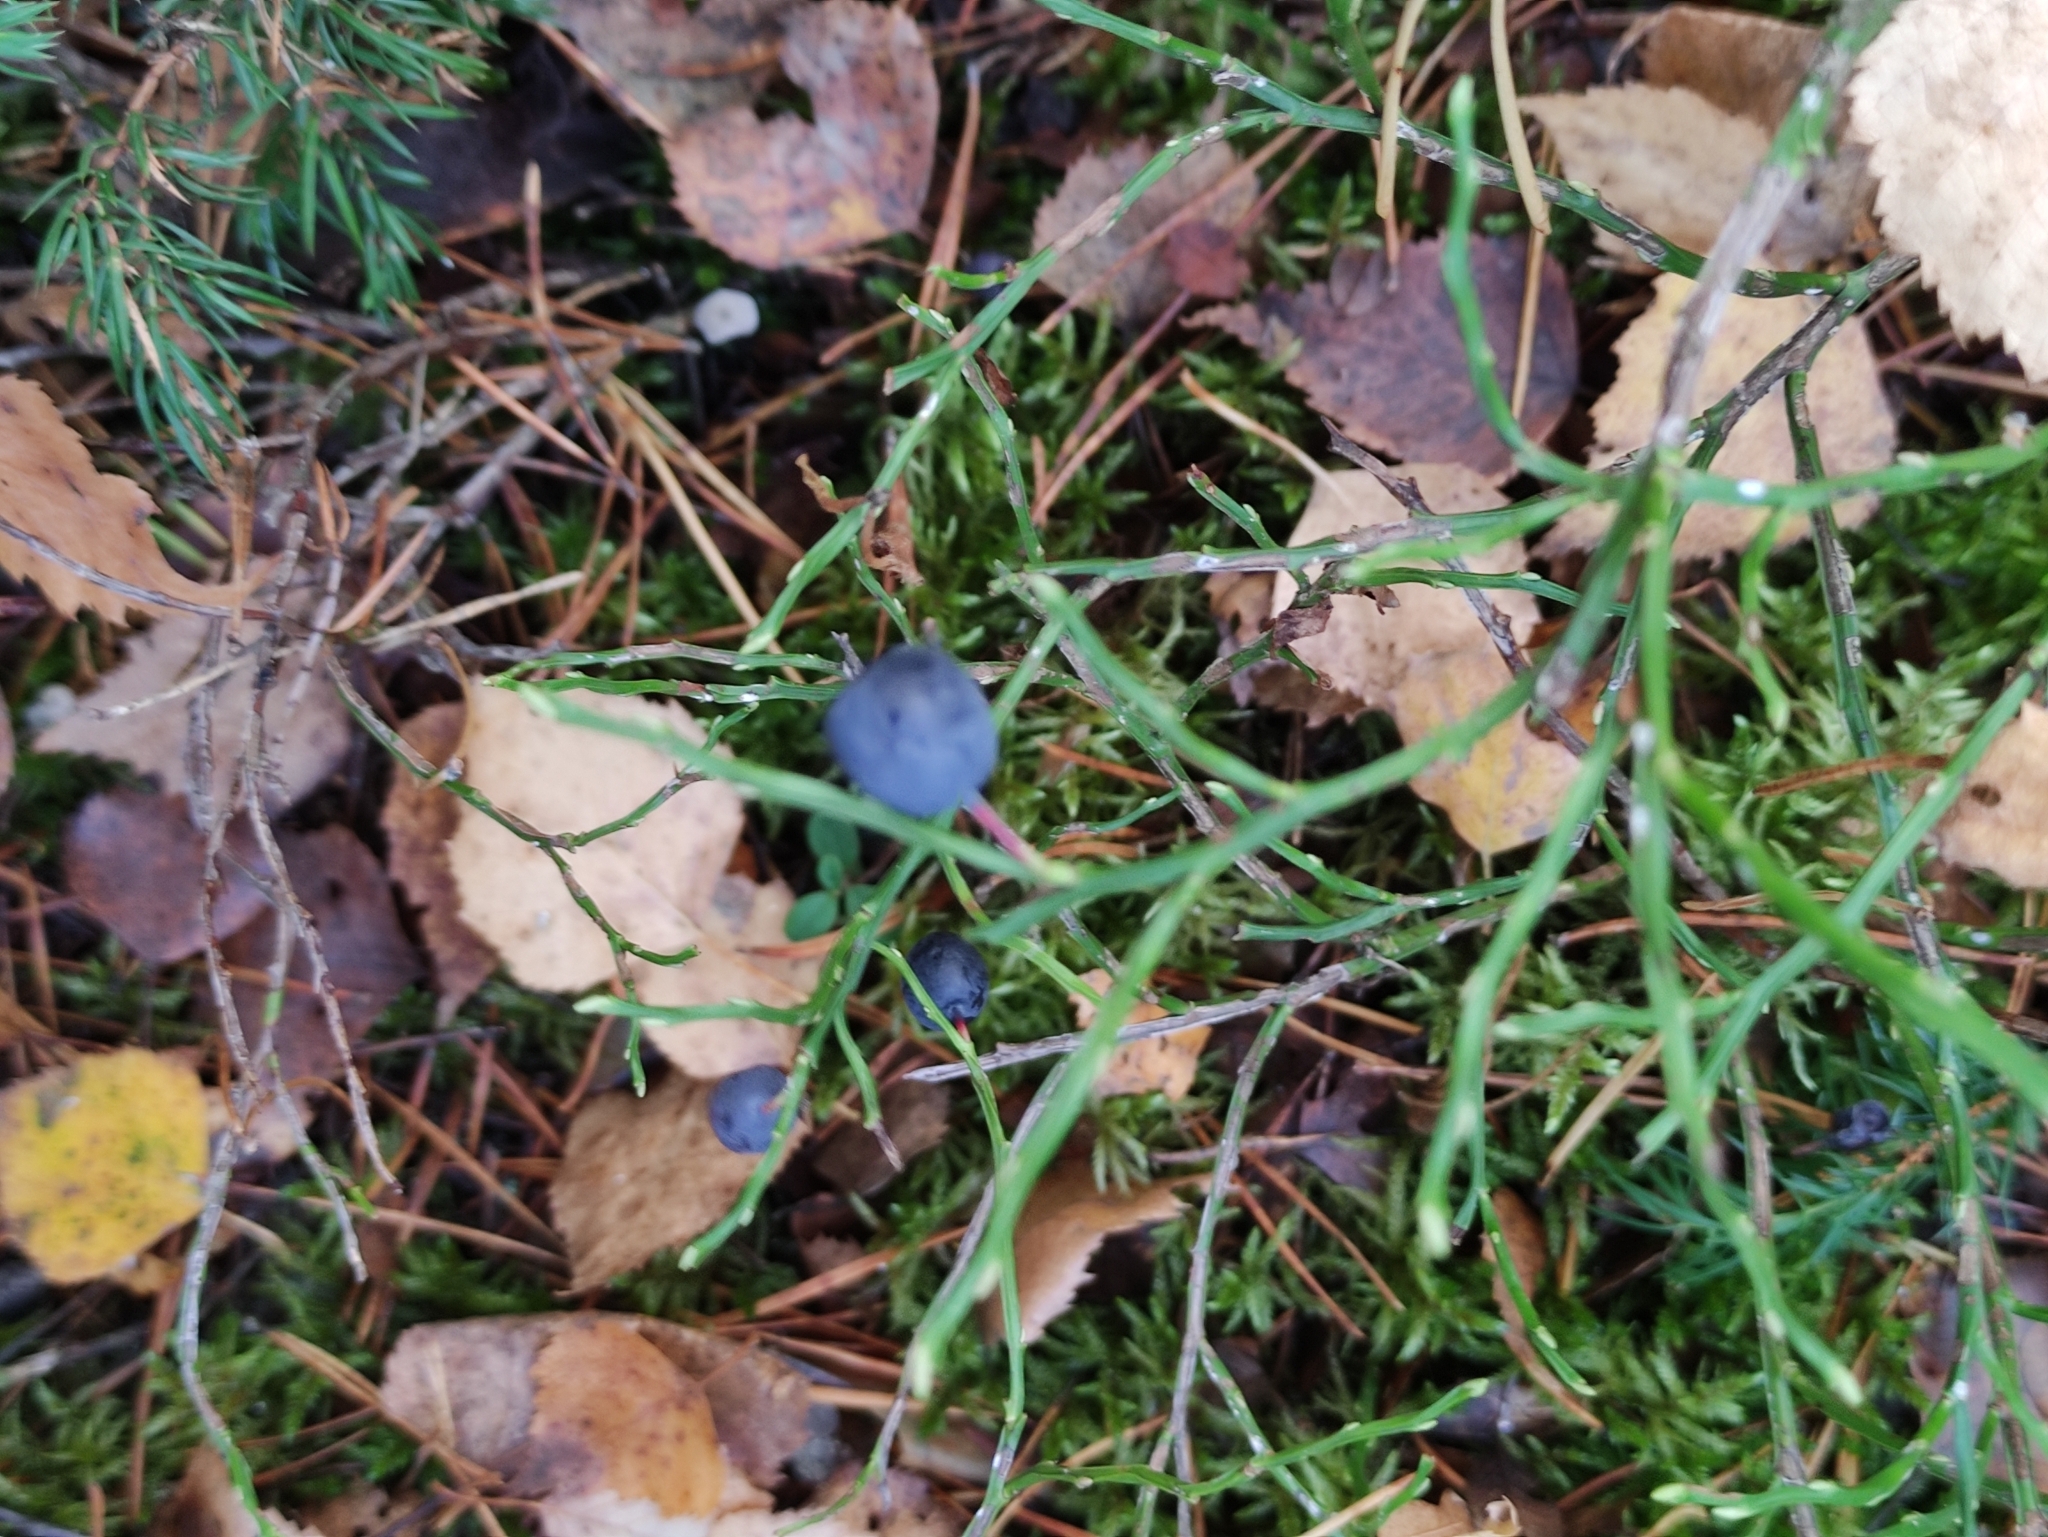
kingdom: Plantae
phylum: Tracheophyta
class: Magnoliopsida
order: Ericales
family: Ericaceae
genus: Vaccinium
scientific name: Vaccinium myrtillus
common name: Bilberry
